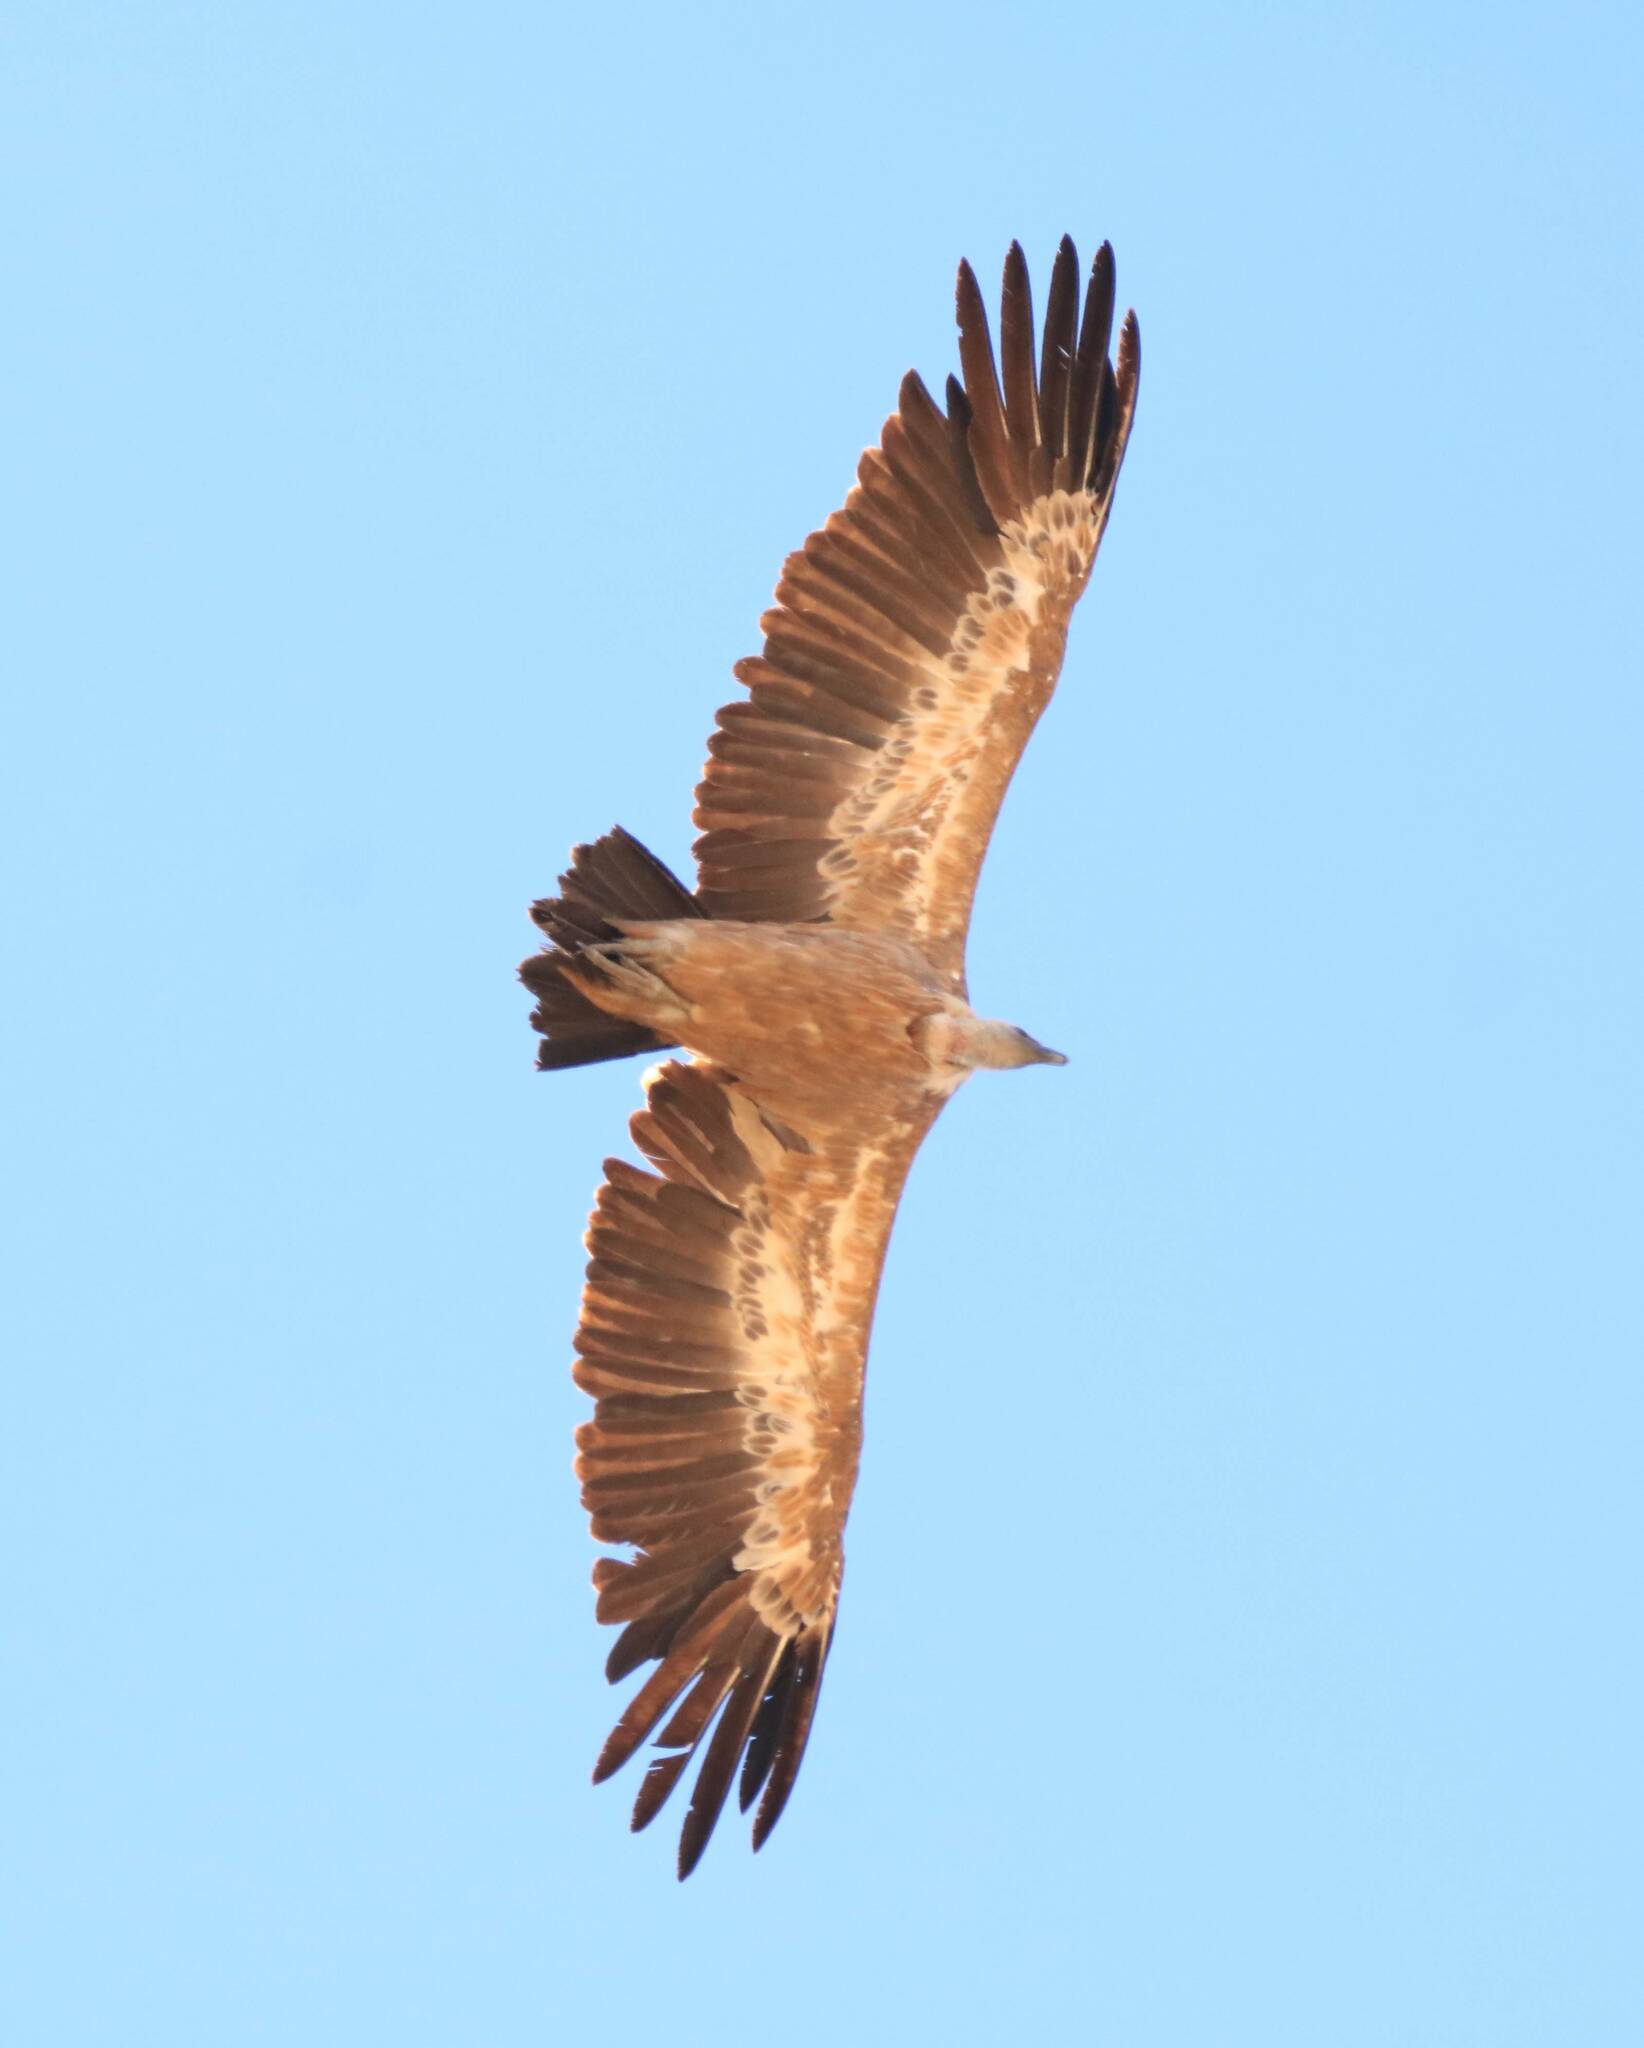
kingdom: Animalia
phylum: Chordata
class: Aves
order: Accipitriformes
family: Accipitridae
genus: Gyps
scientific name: Gyps fulvus
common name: Griffon vulture
